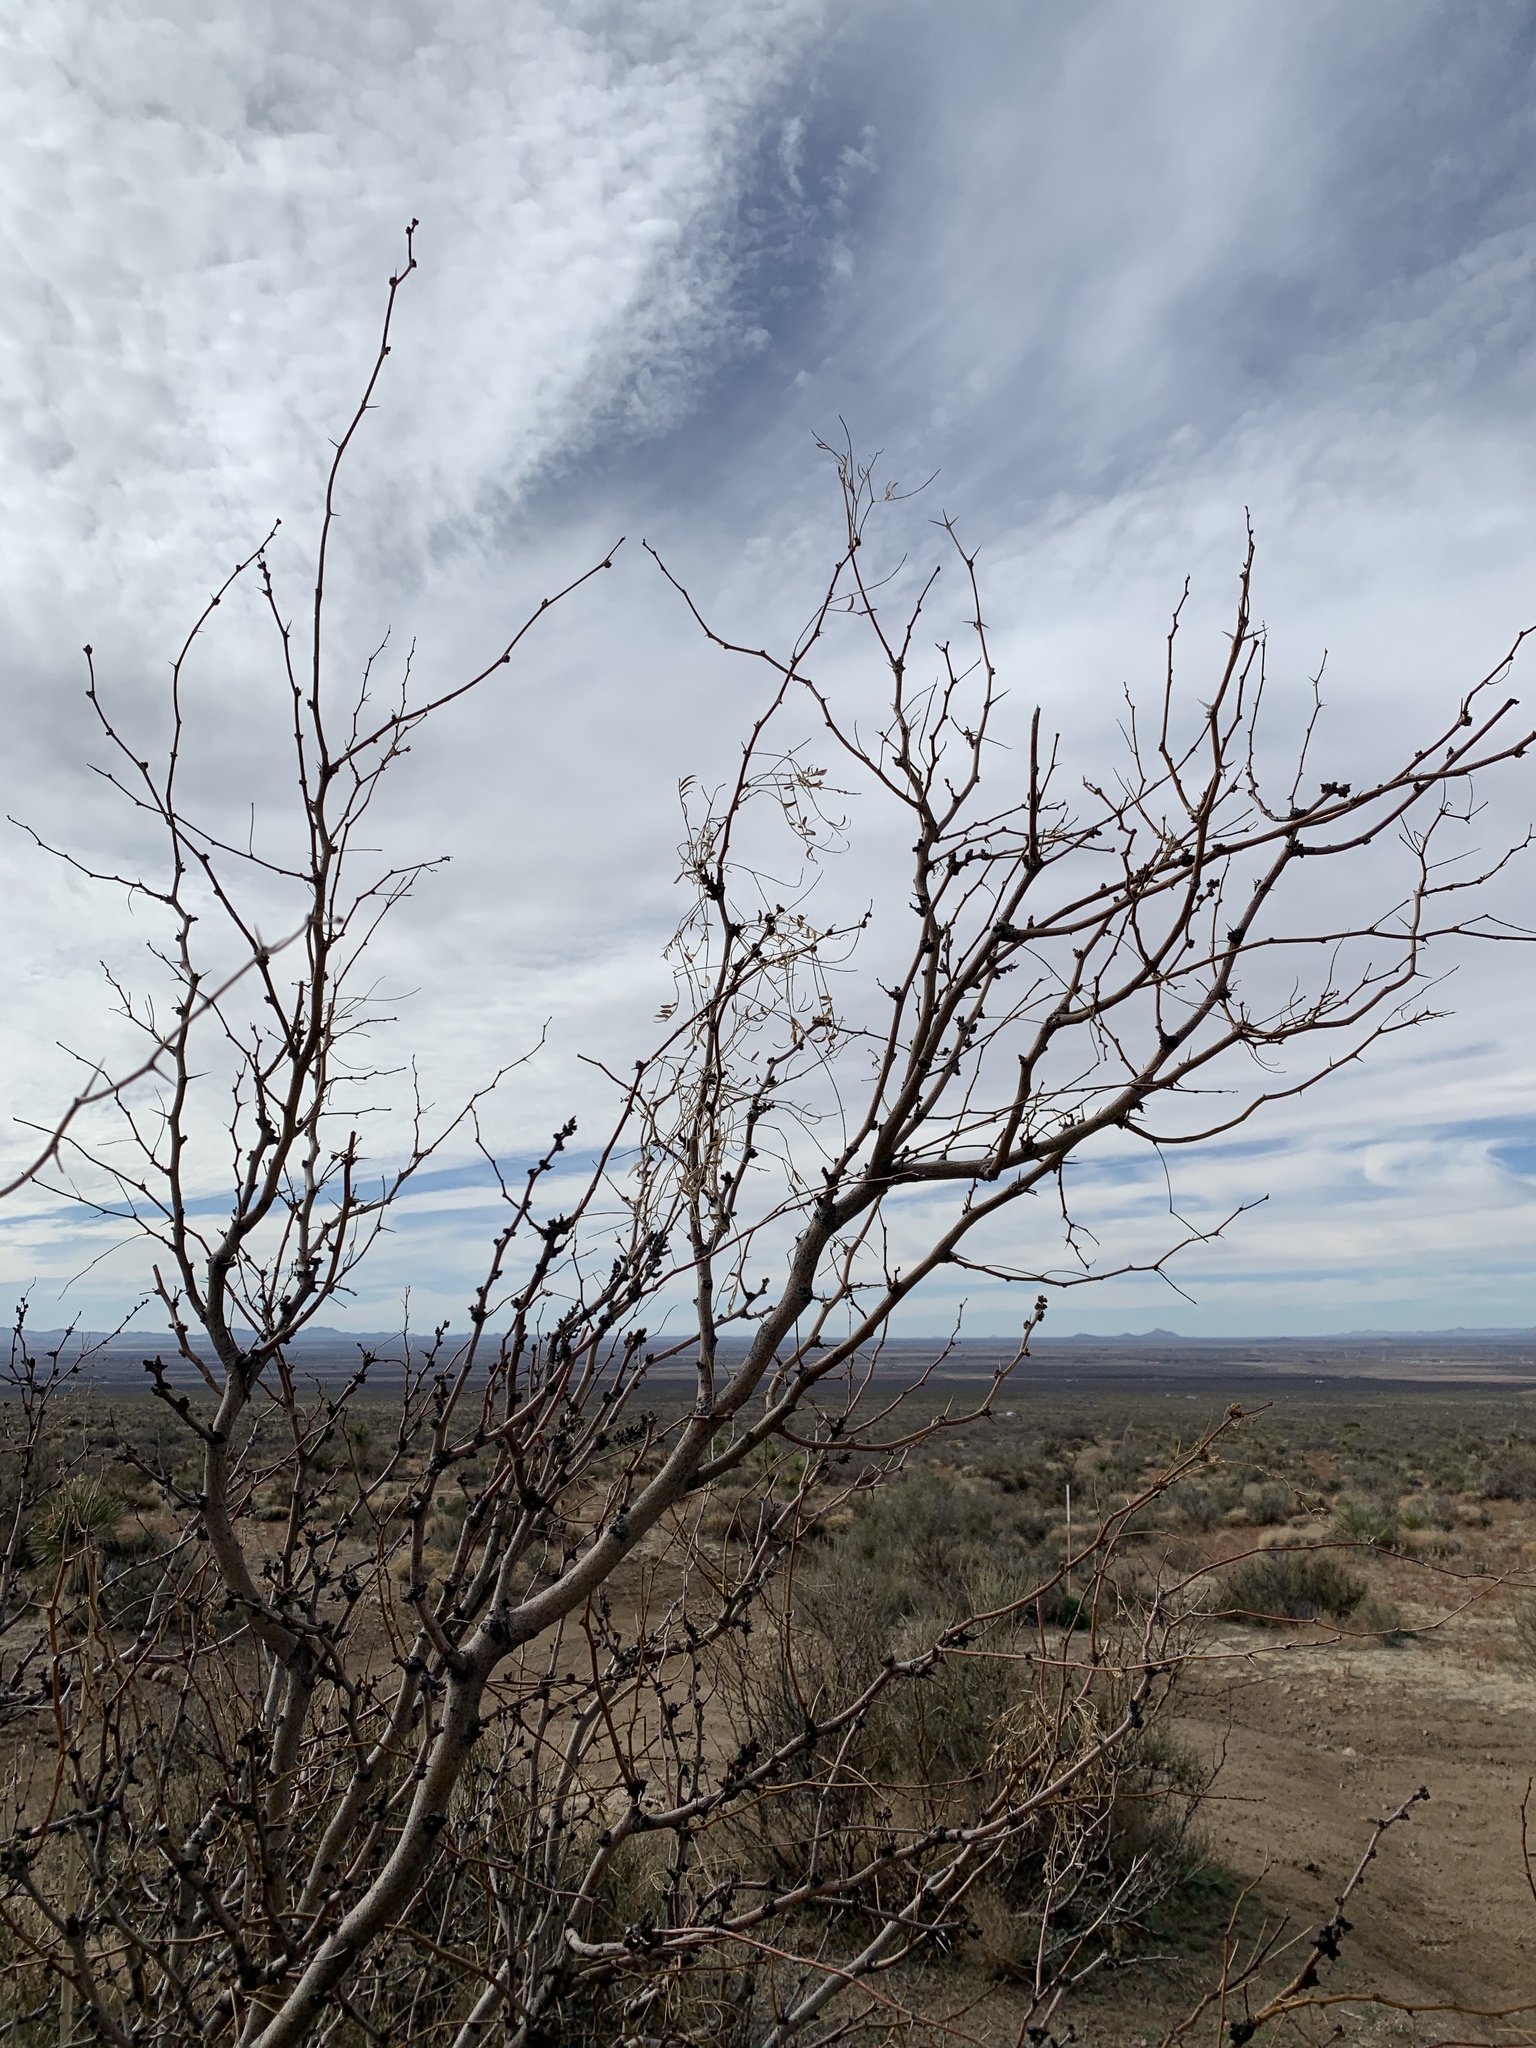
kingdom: Plantae
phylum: Tracheophyta
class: Magnoliopsida
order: Fabales
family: Fabaceae
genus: Prosopis
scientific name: Prosopis glandulosa
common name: Honey mesquite
